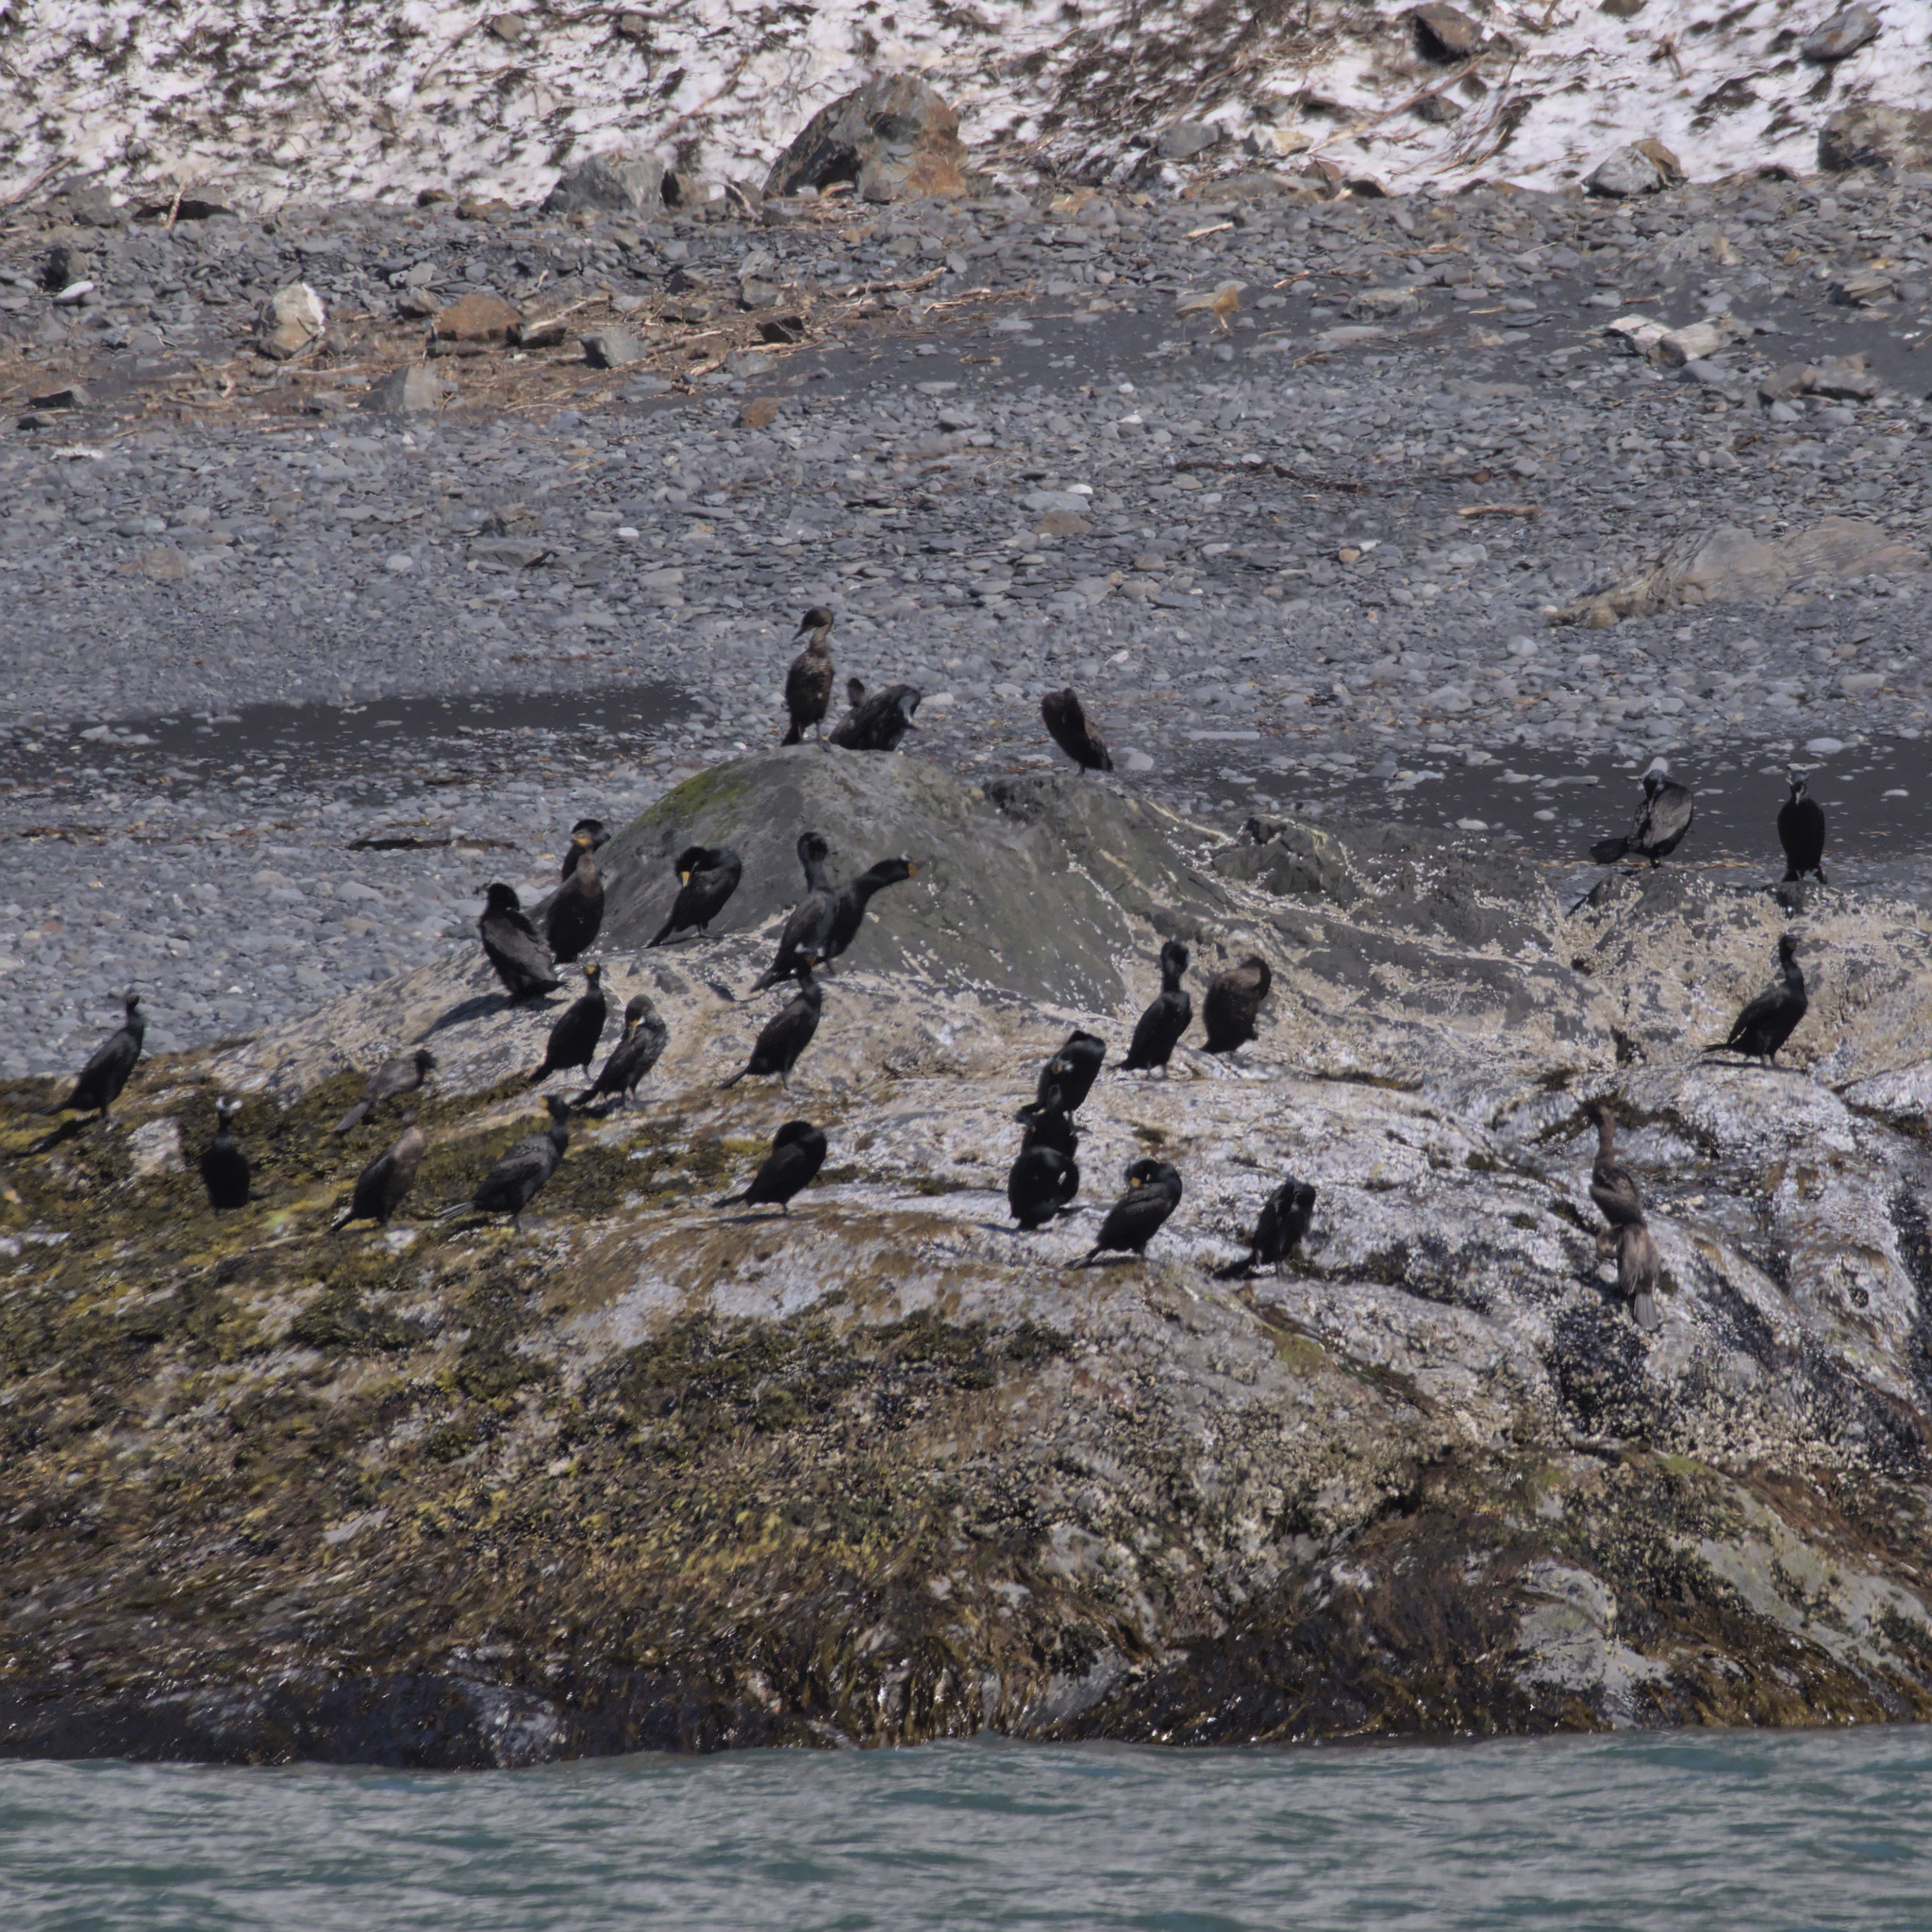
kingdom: Animalia
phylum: Chordata
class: Aves
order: Suliformes
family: Phalacrocoracidae
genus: Phalacrocorax
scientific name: Phalacrocorax auritus
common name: Double-crested cormorant
